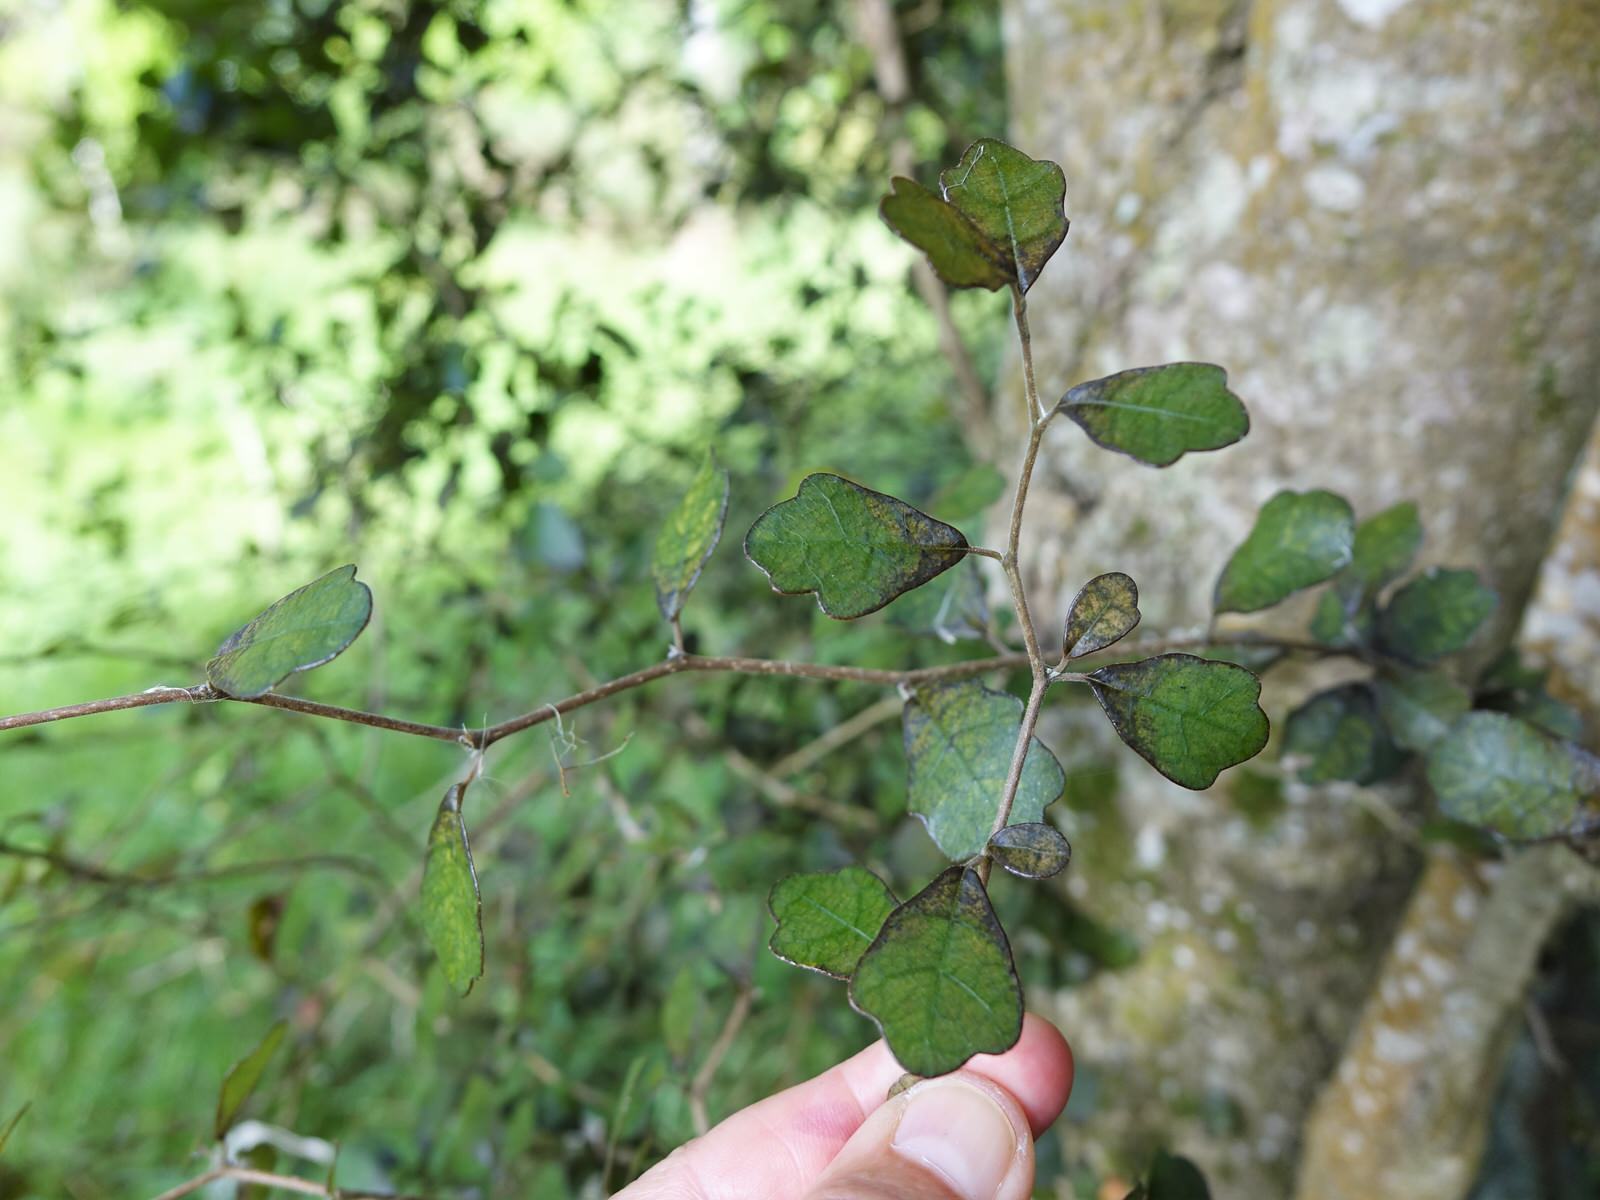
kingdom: Plantae
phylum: Tracheophyta
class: Magnoliopsida
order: Apiales
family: Pennantiaceae
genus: Pennantia
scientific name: Pennantia corymbosa
